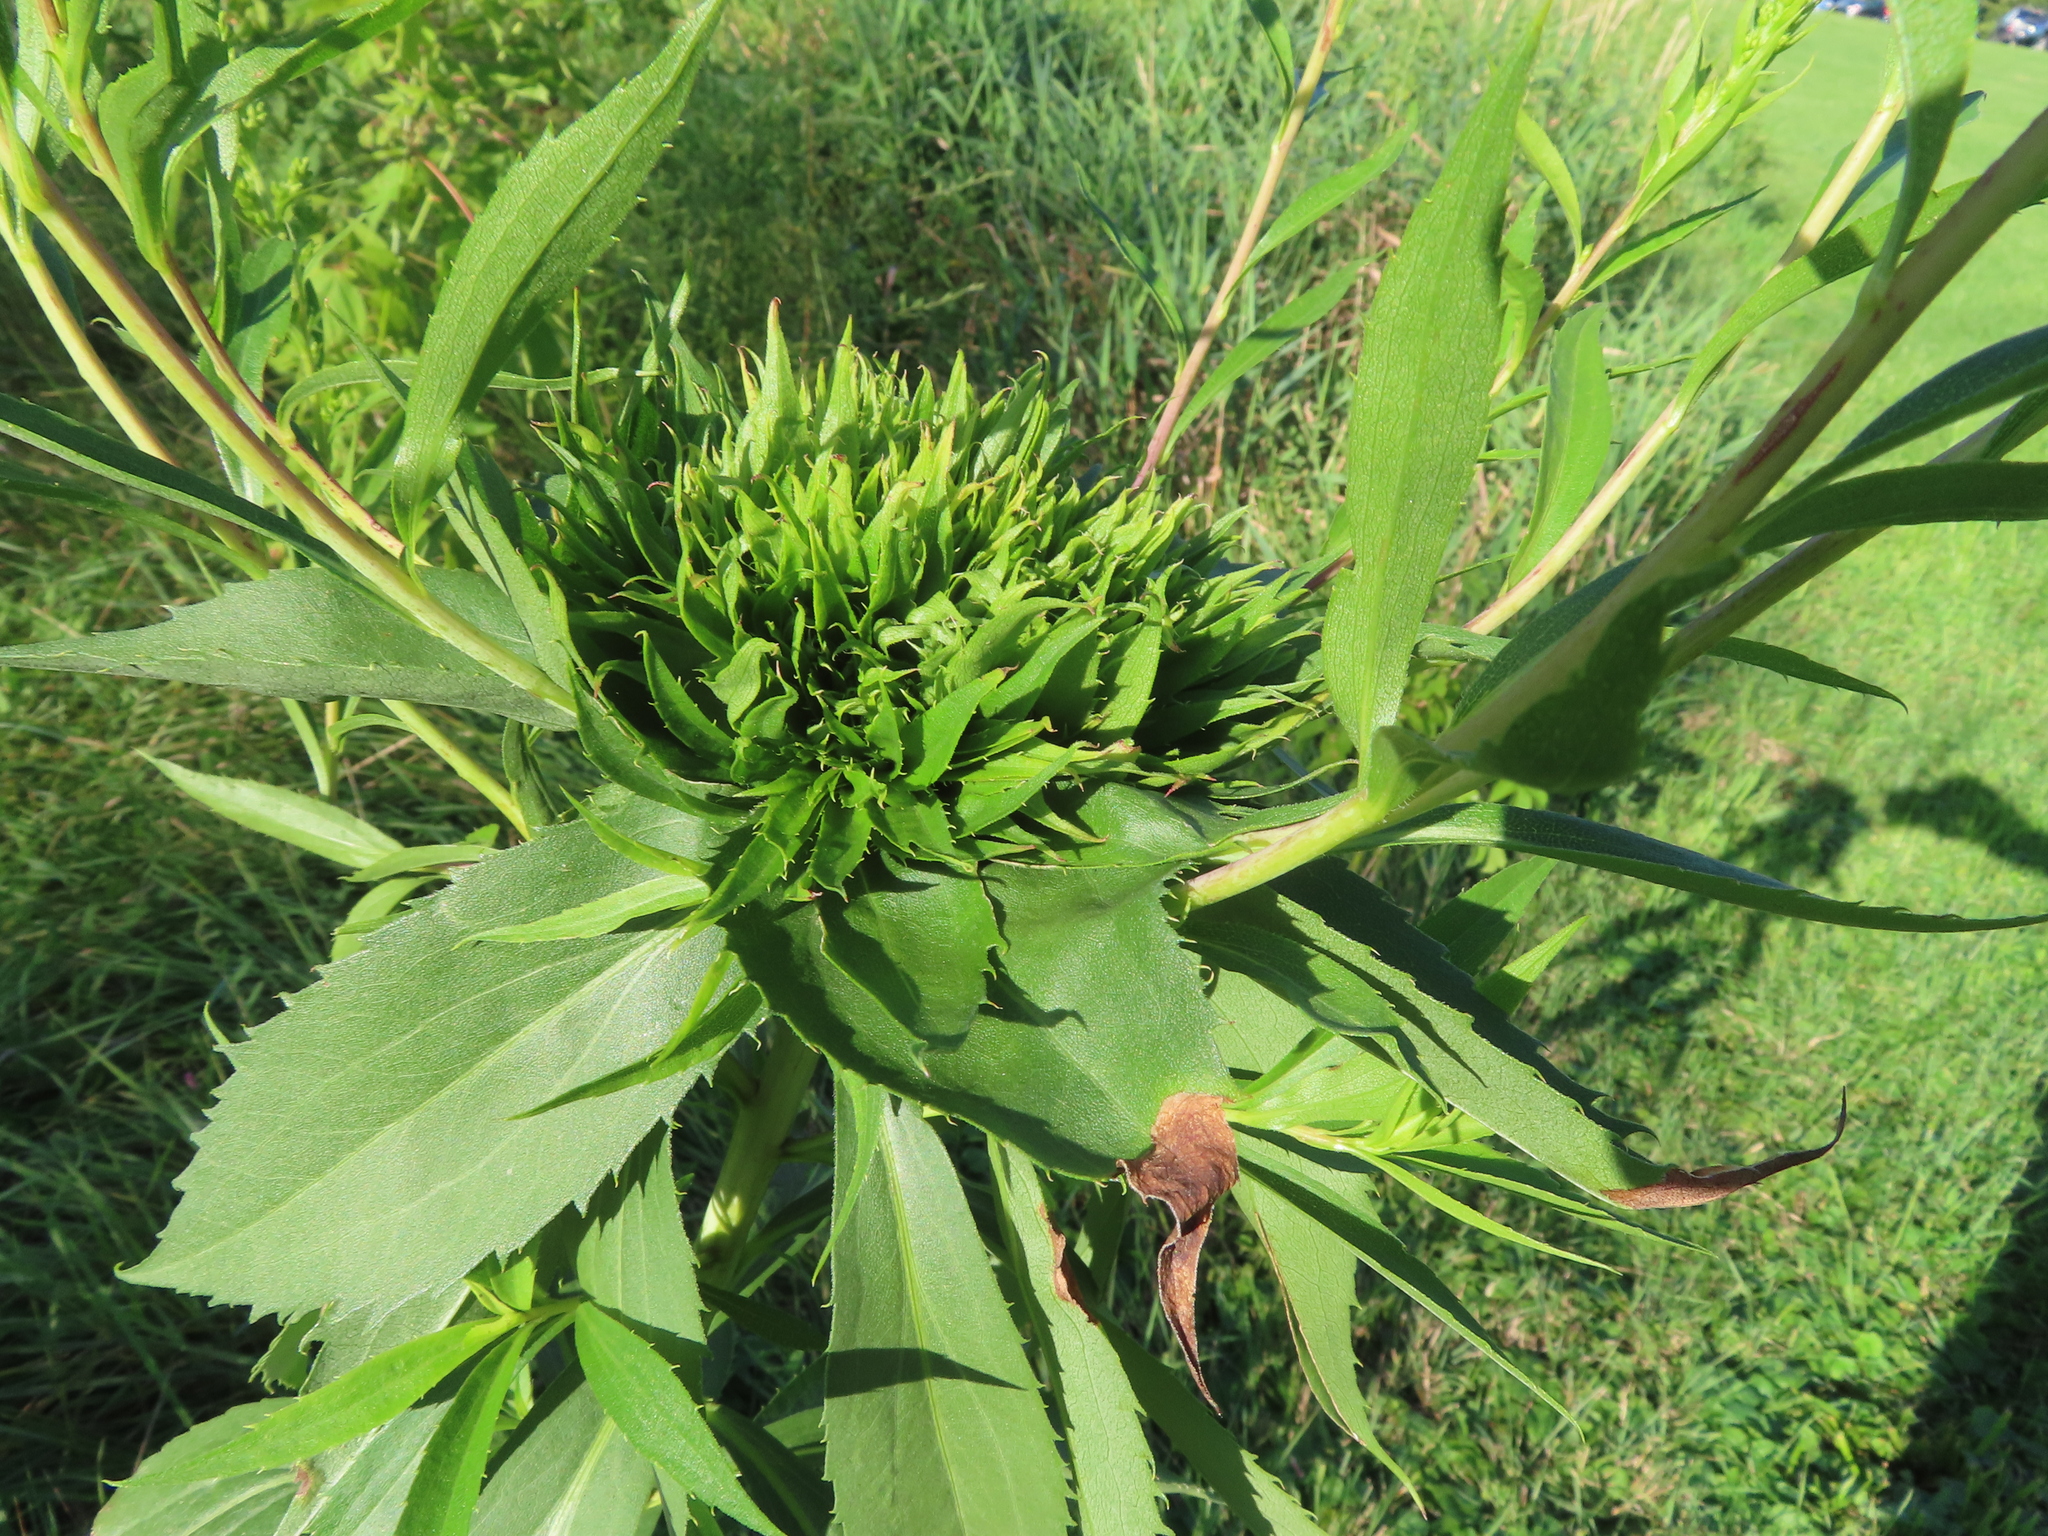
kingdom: Animalia
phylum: Arthropoda
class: Insecta
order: Diptera
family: Cecidomyiidae
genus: Rhopalomyia
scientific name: Rhopalomyia capitata
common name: Giant goldenrod bunch gall midge
